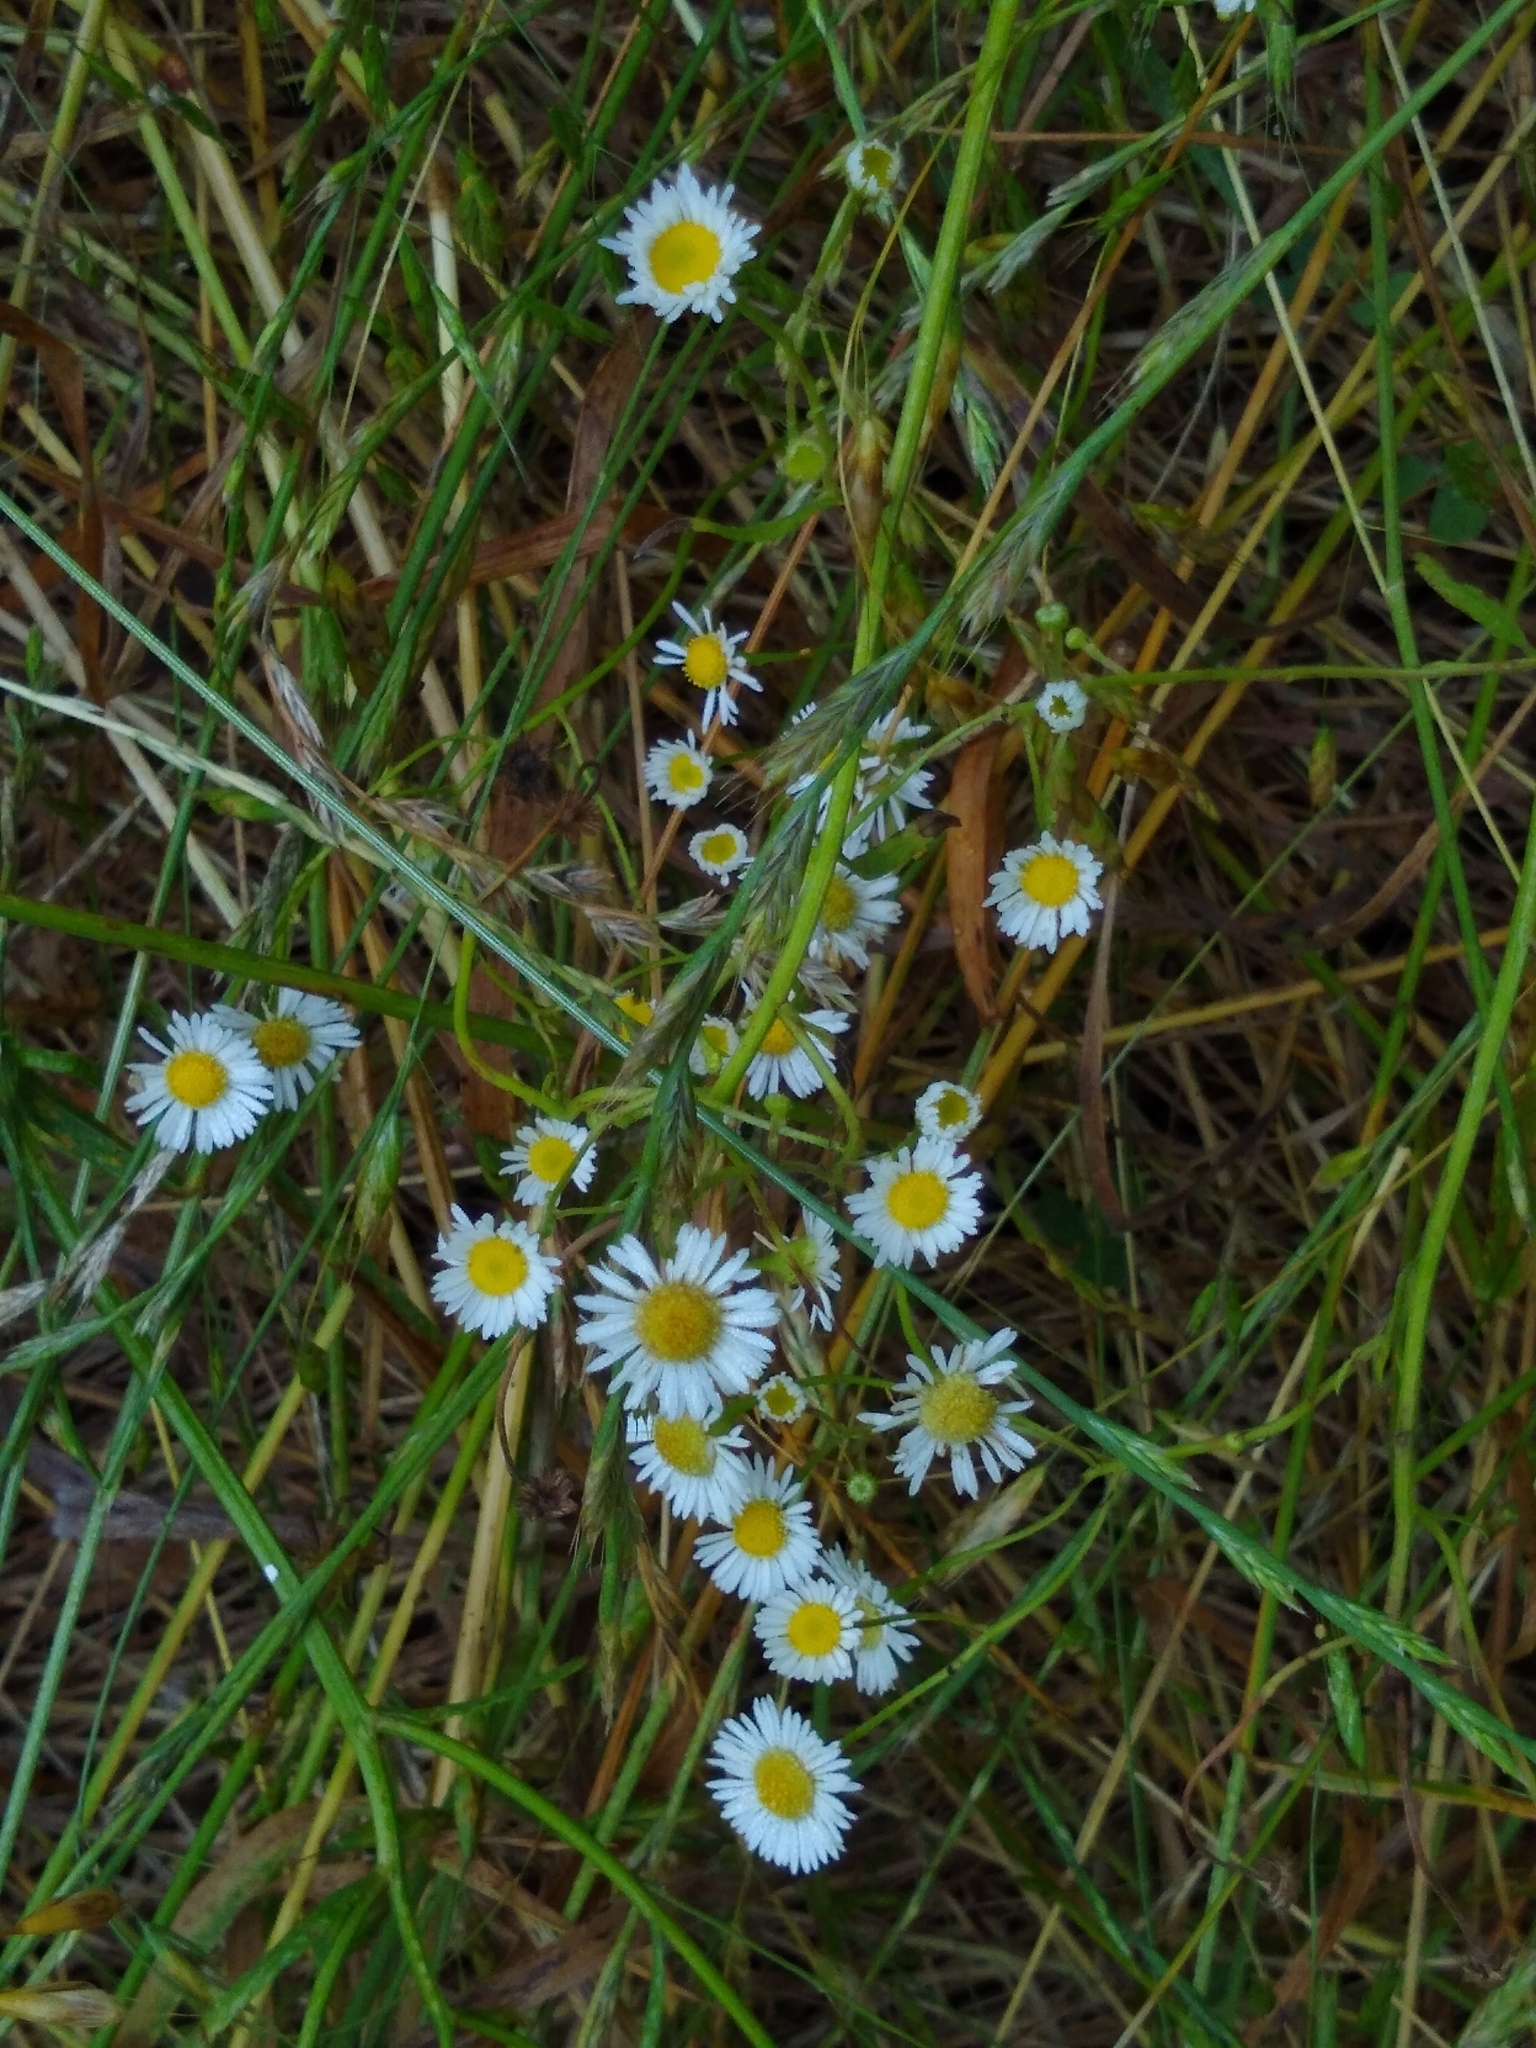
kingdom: Plantae
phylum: Tracheophyta
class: Magnoliopsida
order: Asterales
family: Asteraceae
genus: Erigeron
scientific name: Erigeron strigosus
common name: Common eastern fleabane
